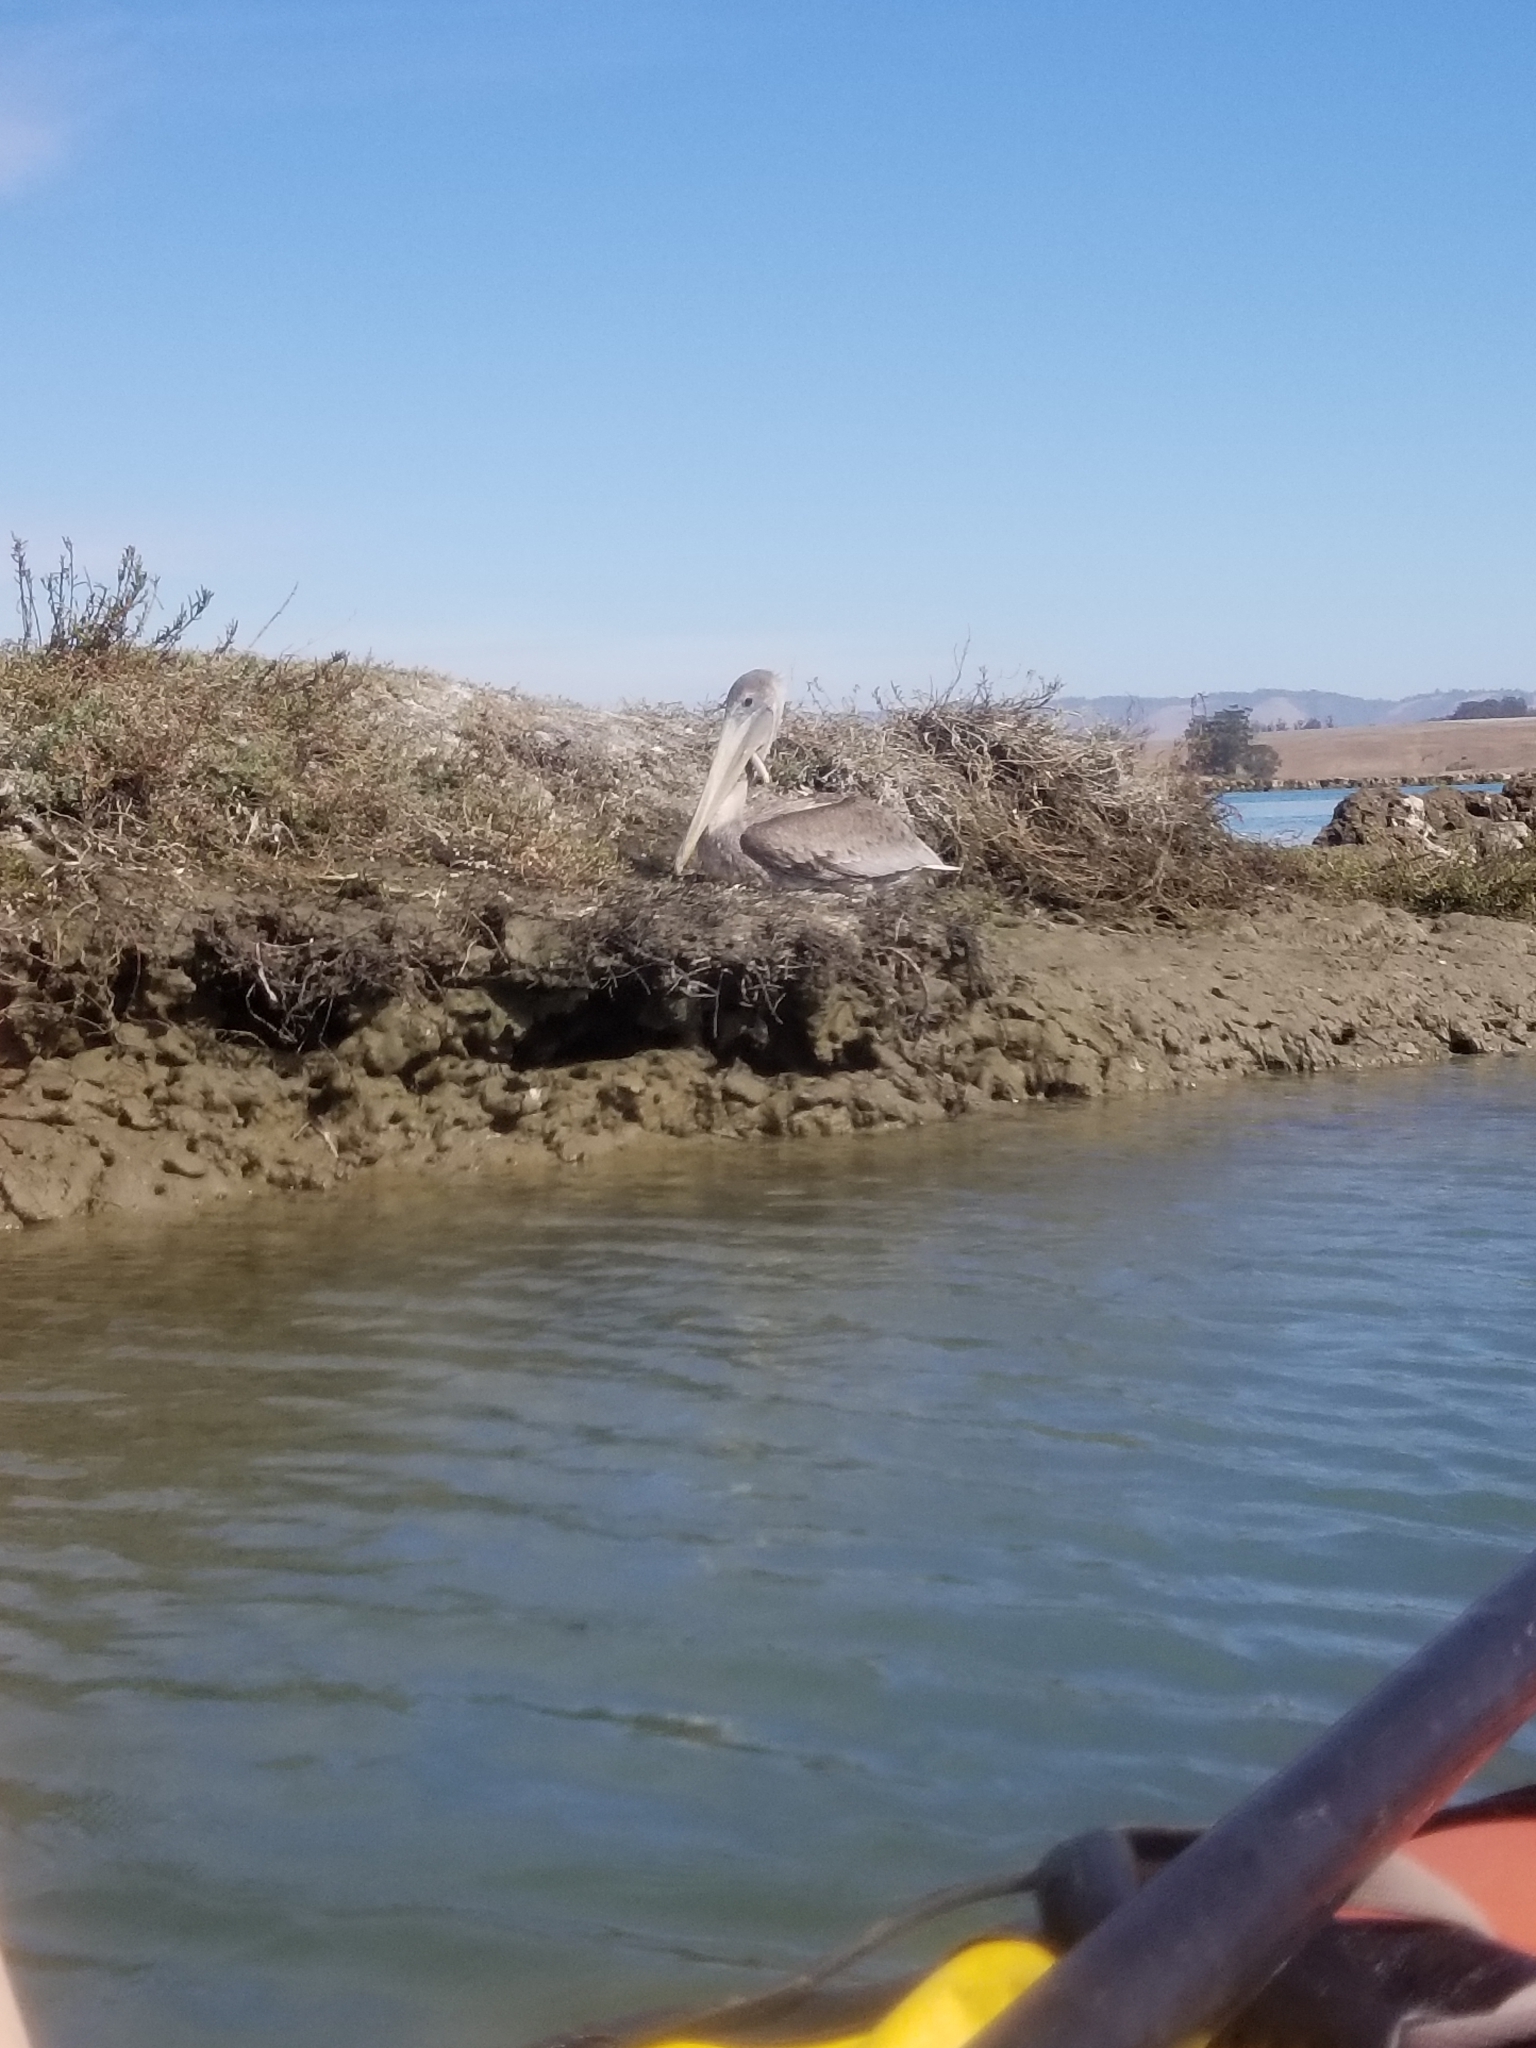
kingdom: Animalia
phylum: Chordata
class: Aves
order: Pelecaniformes
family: Pelecanidae
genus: Pelecanus
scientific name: Pelecanus occidentalis
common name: Brown pelican
